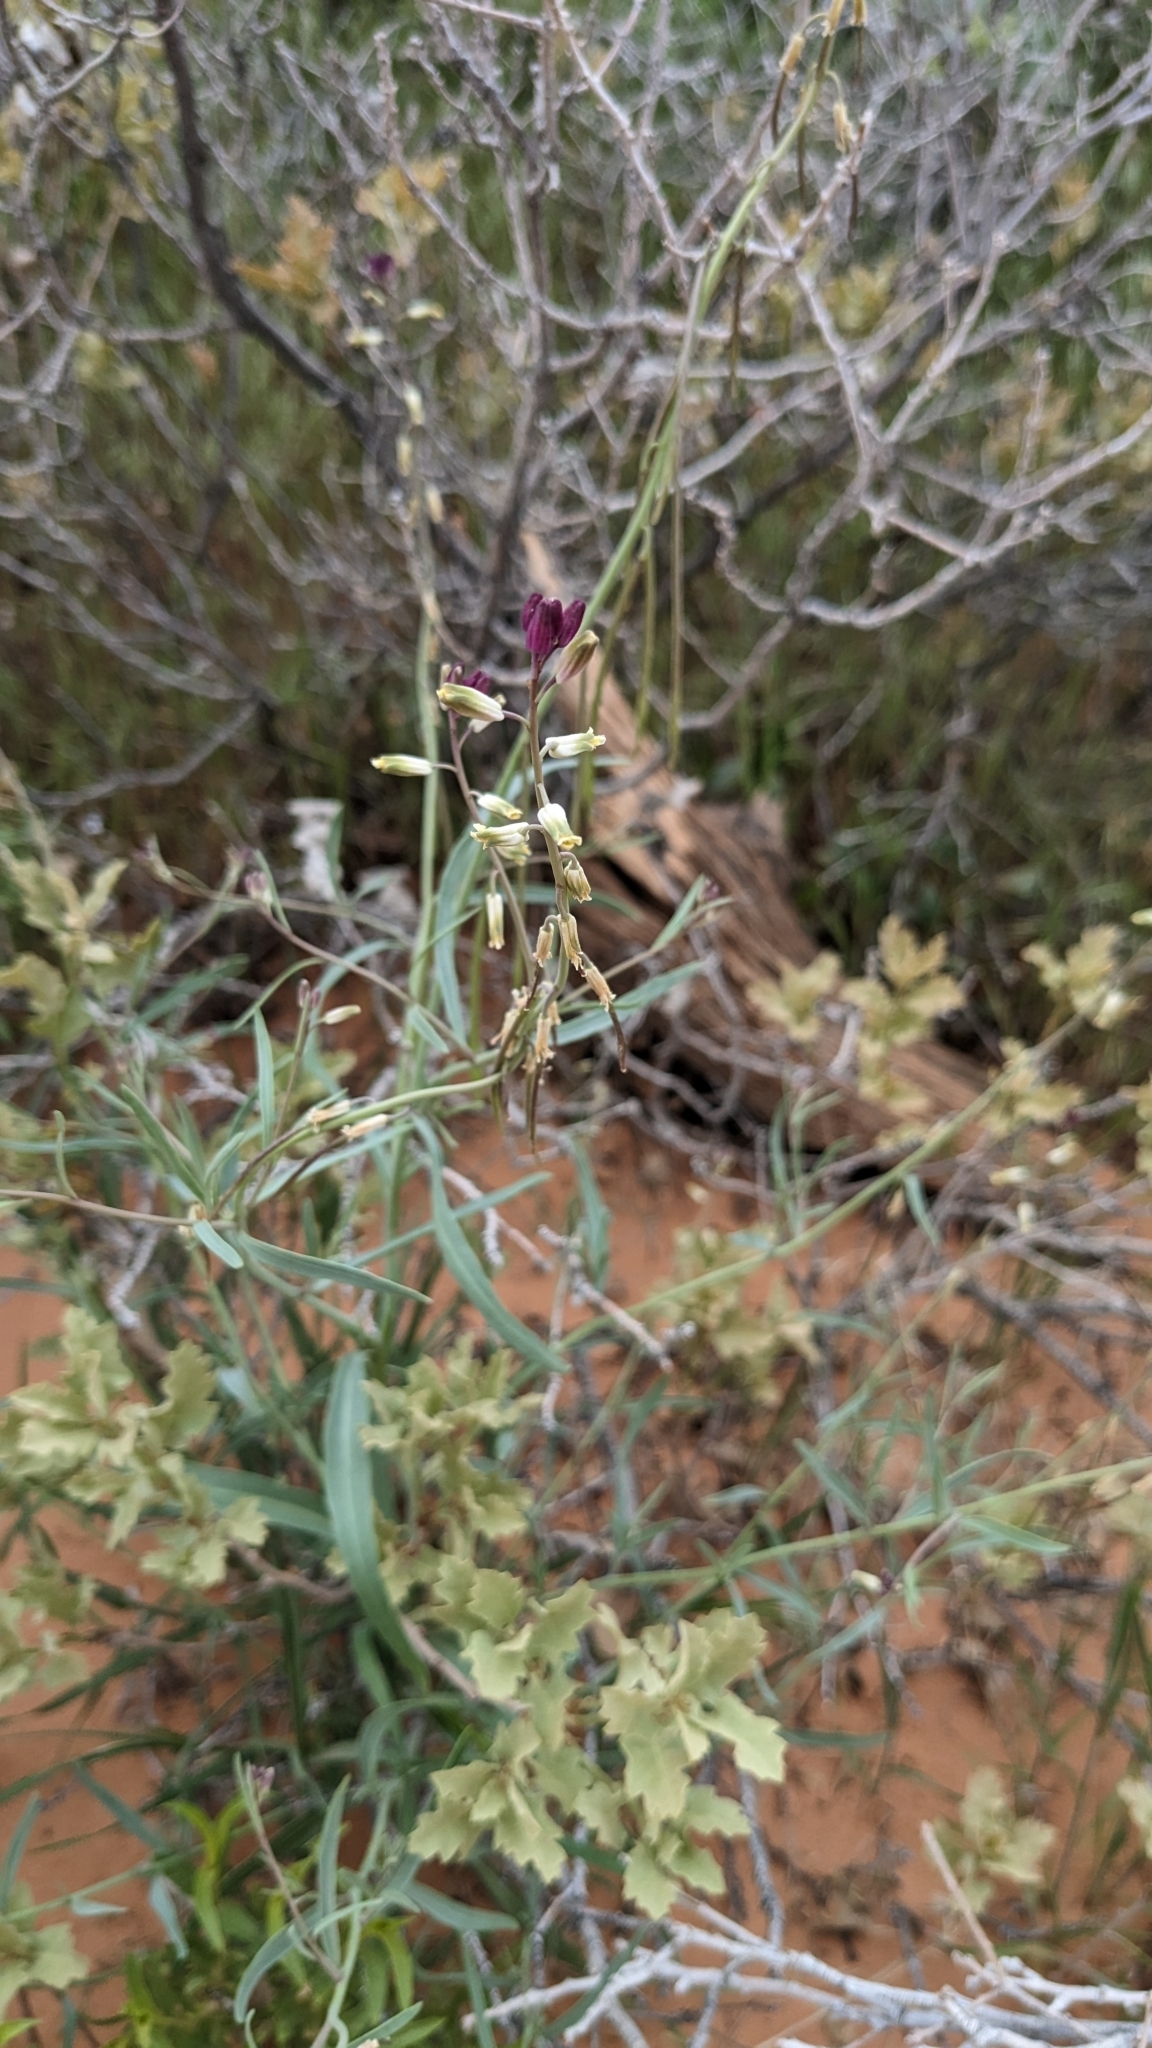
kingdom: Plantae
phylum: Tracheophyta
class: Magnoliopsida
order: Brassicales
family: Brassicaceae
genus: Streptanthus
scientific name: Streptanthus longirostris
